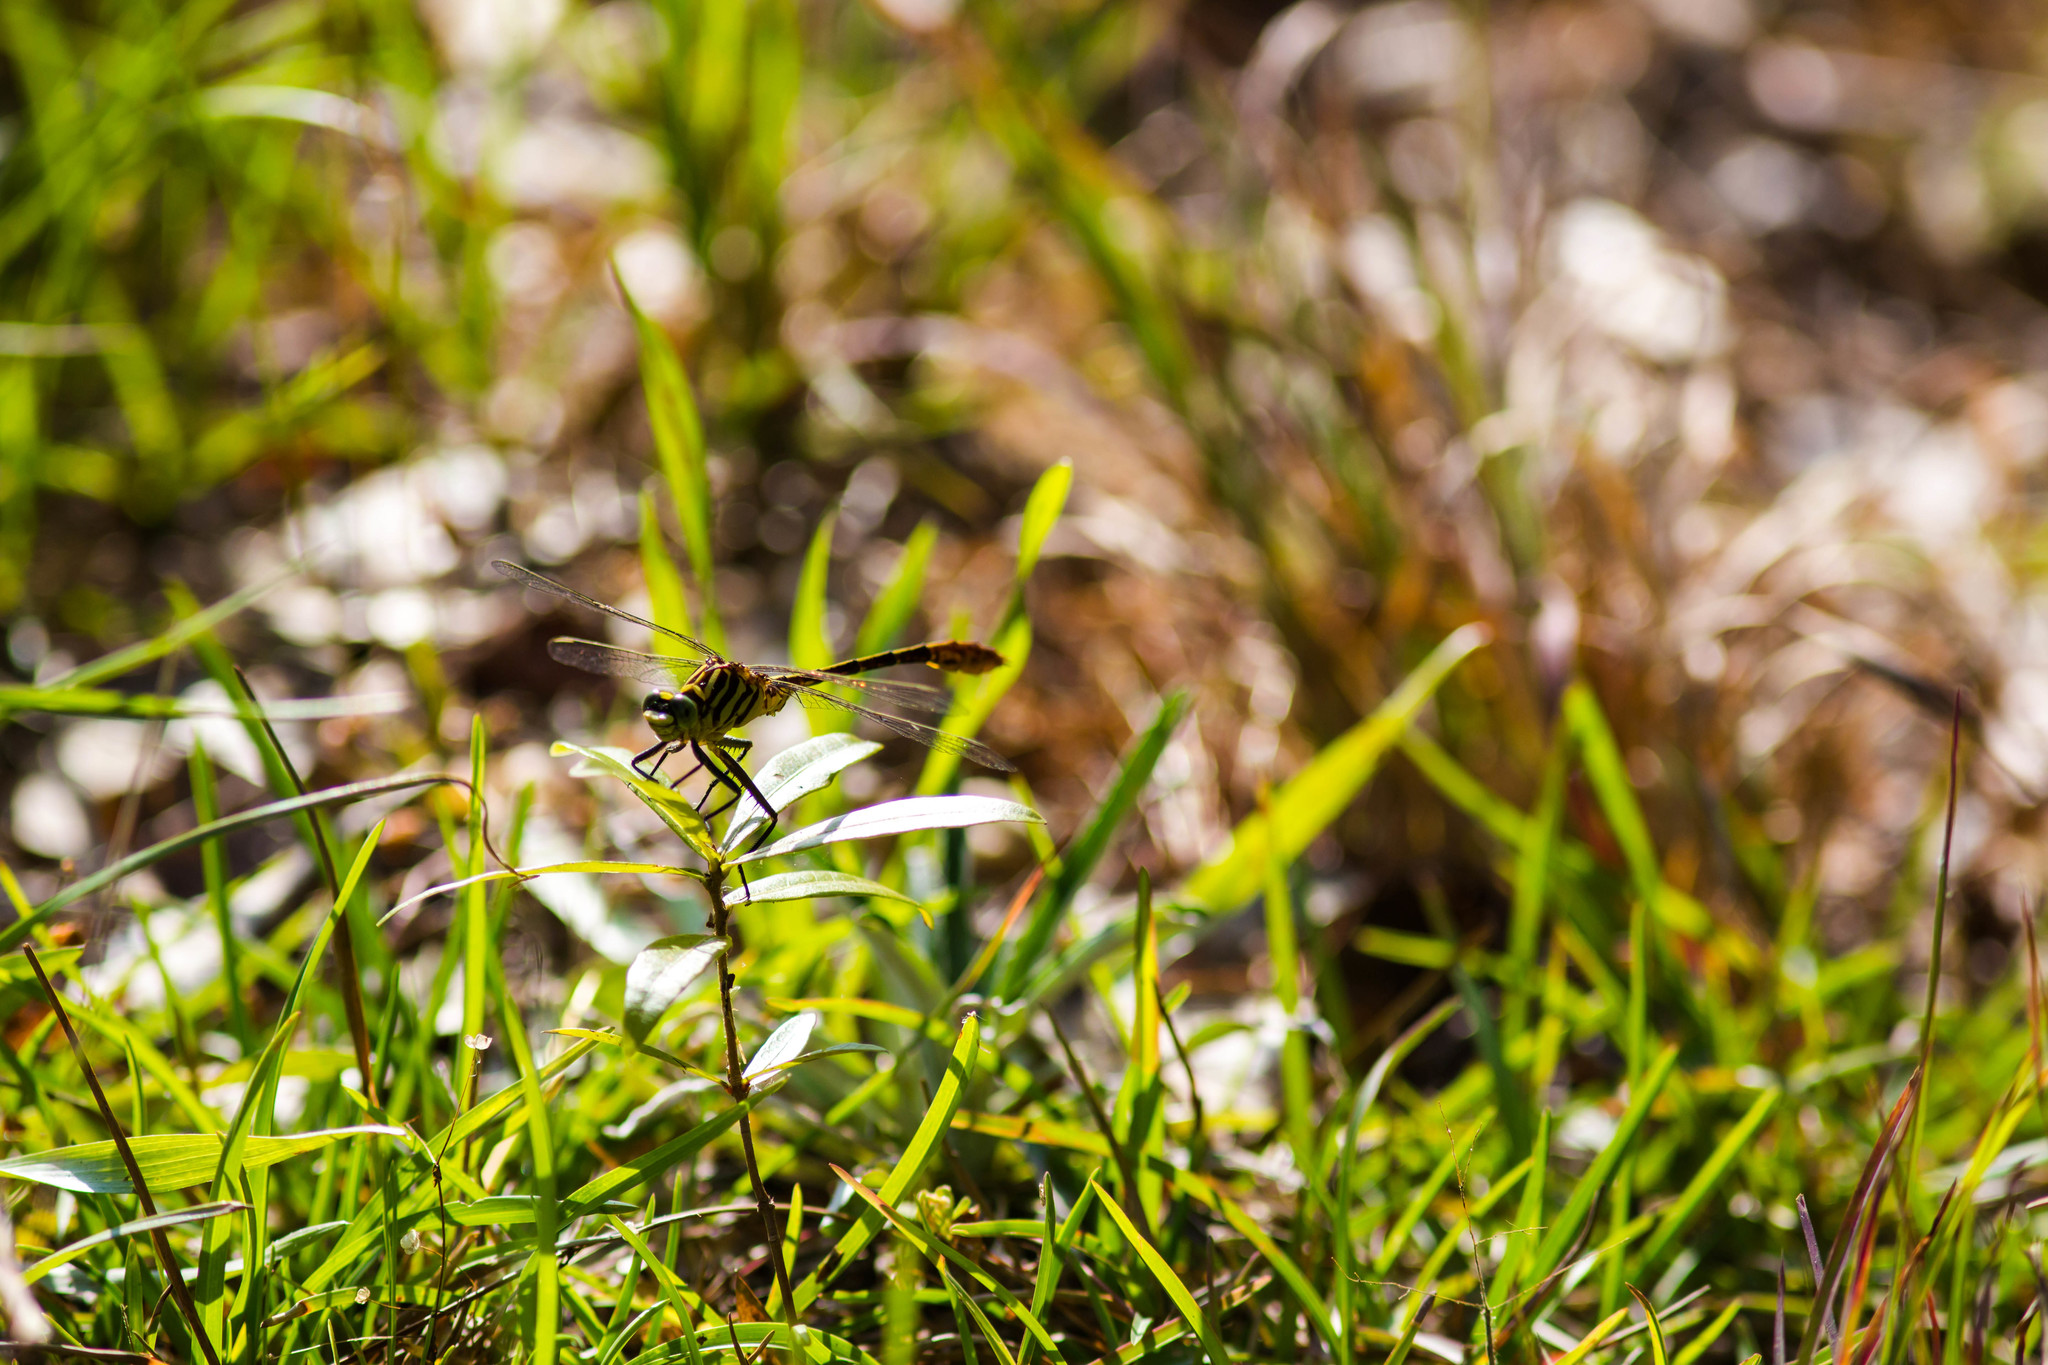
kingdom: Animalia
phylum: Arthropoda
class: Insecta
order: Odonata
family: Gomphidae
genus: Dromogomphus
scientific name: Dromogomphus armatus
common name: Southeastern spinyleg
